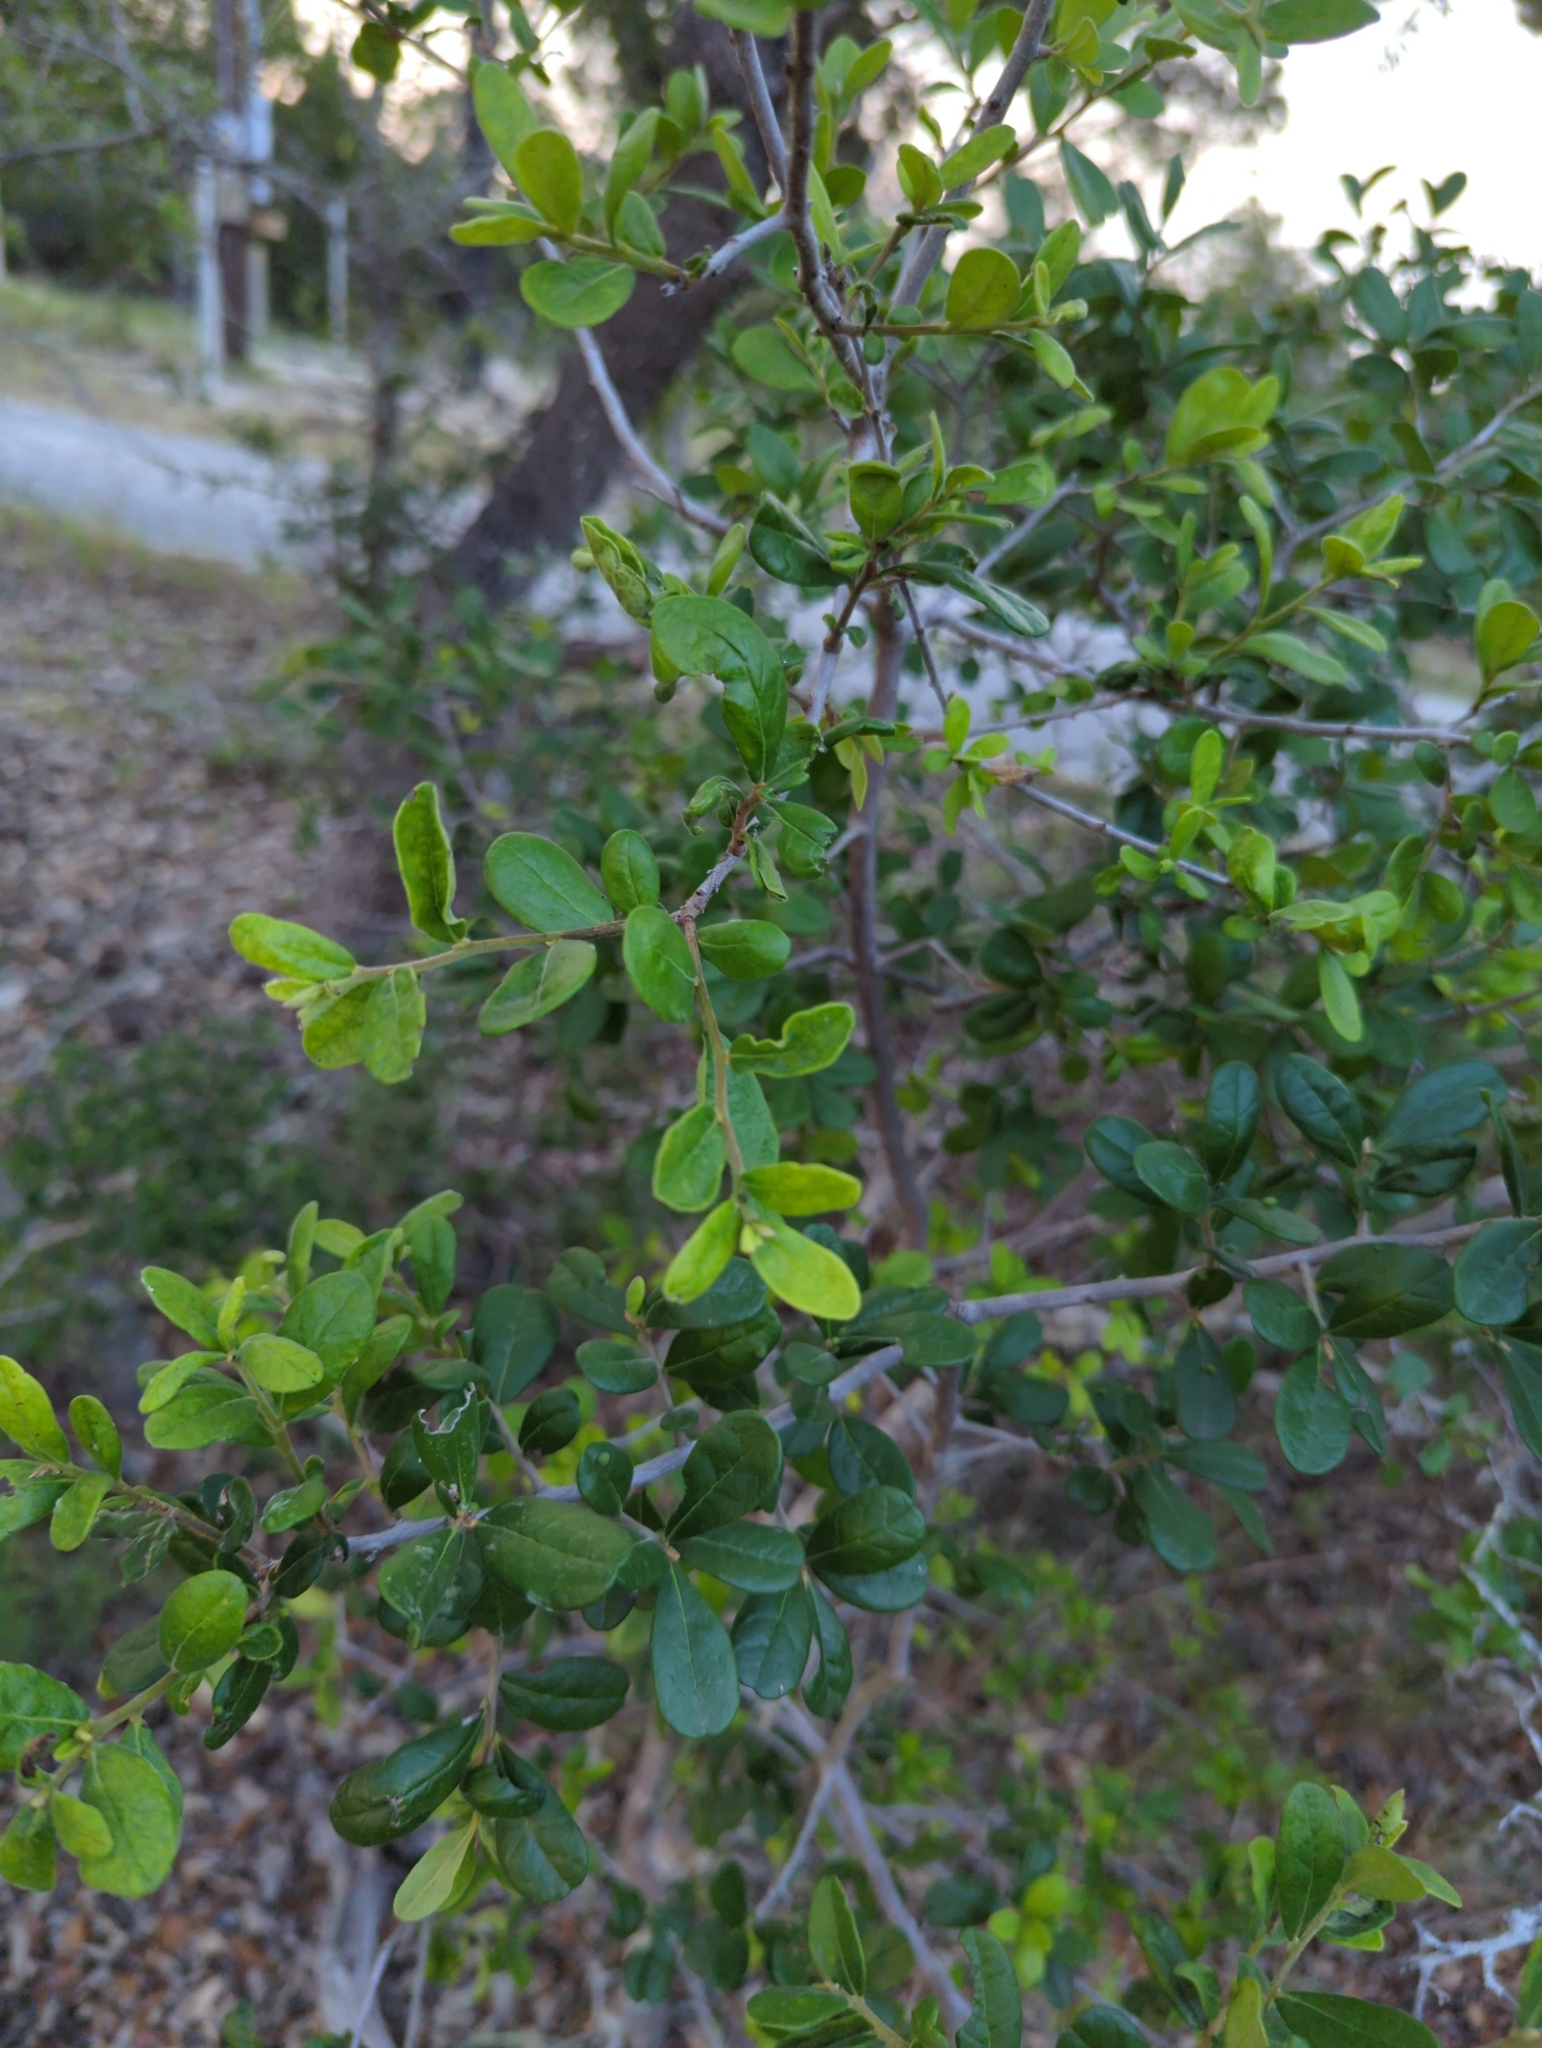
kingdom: Plantae
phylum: Tracheophyta
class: Magnoliopsida
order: Ericales
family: Ebenaceae
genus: Diospyros
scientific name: Diospyros texana
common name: Texas persimmon
